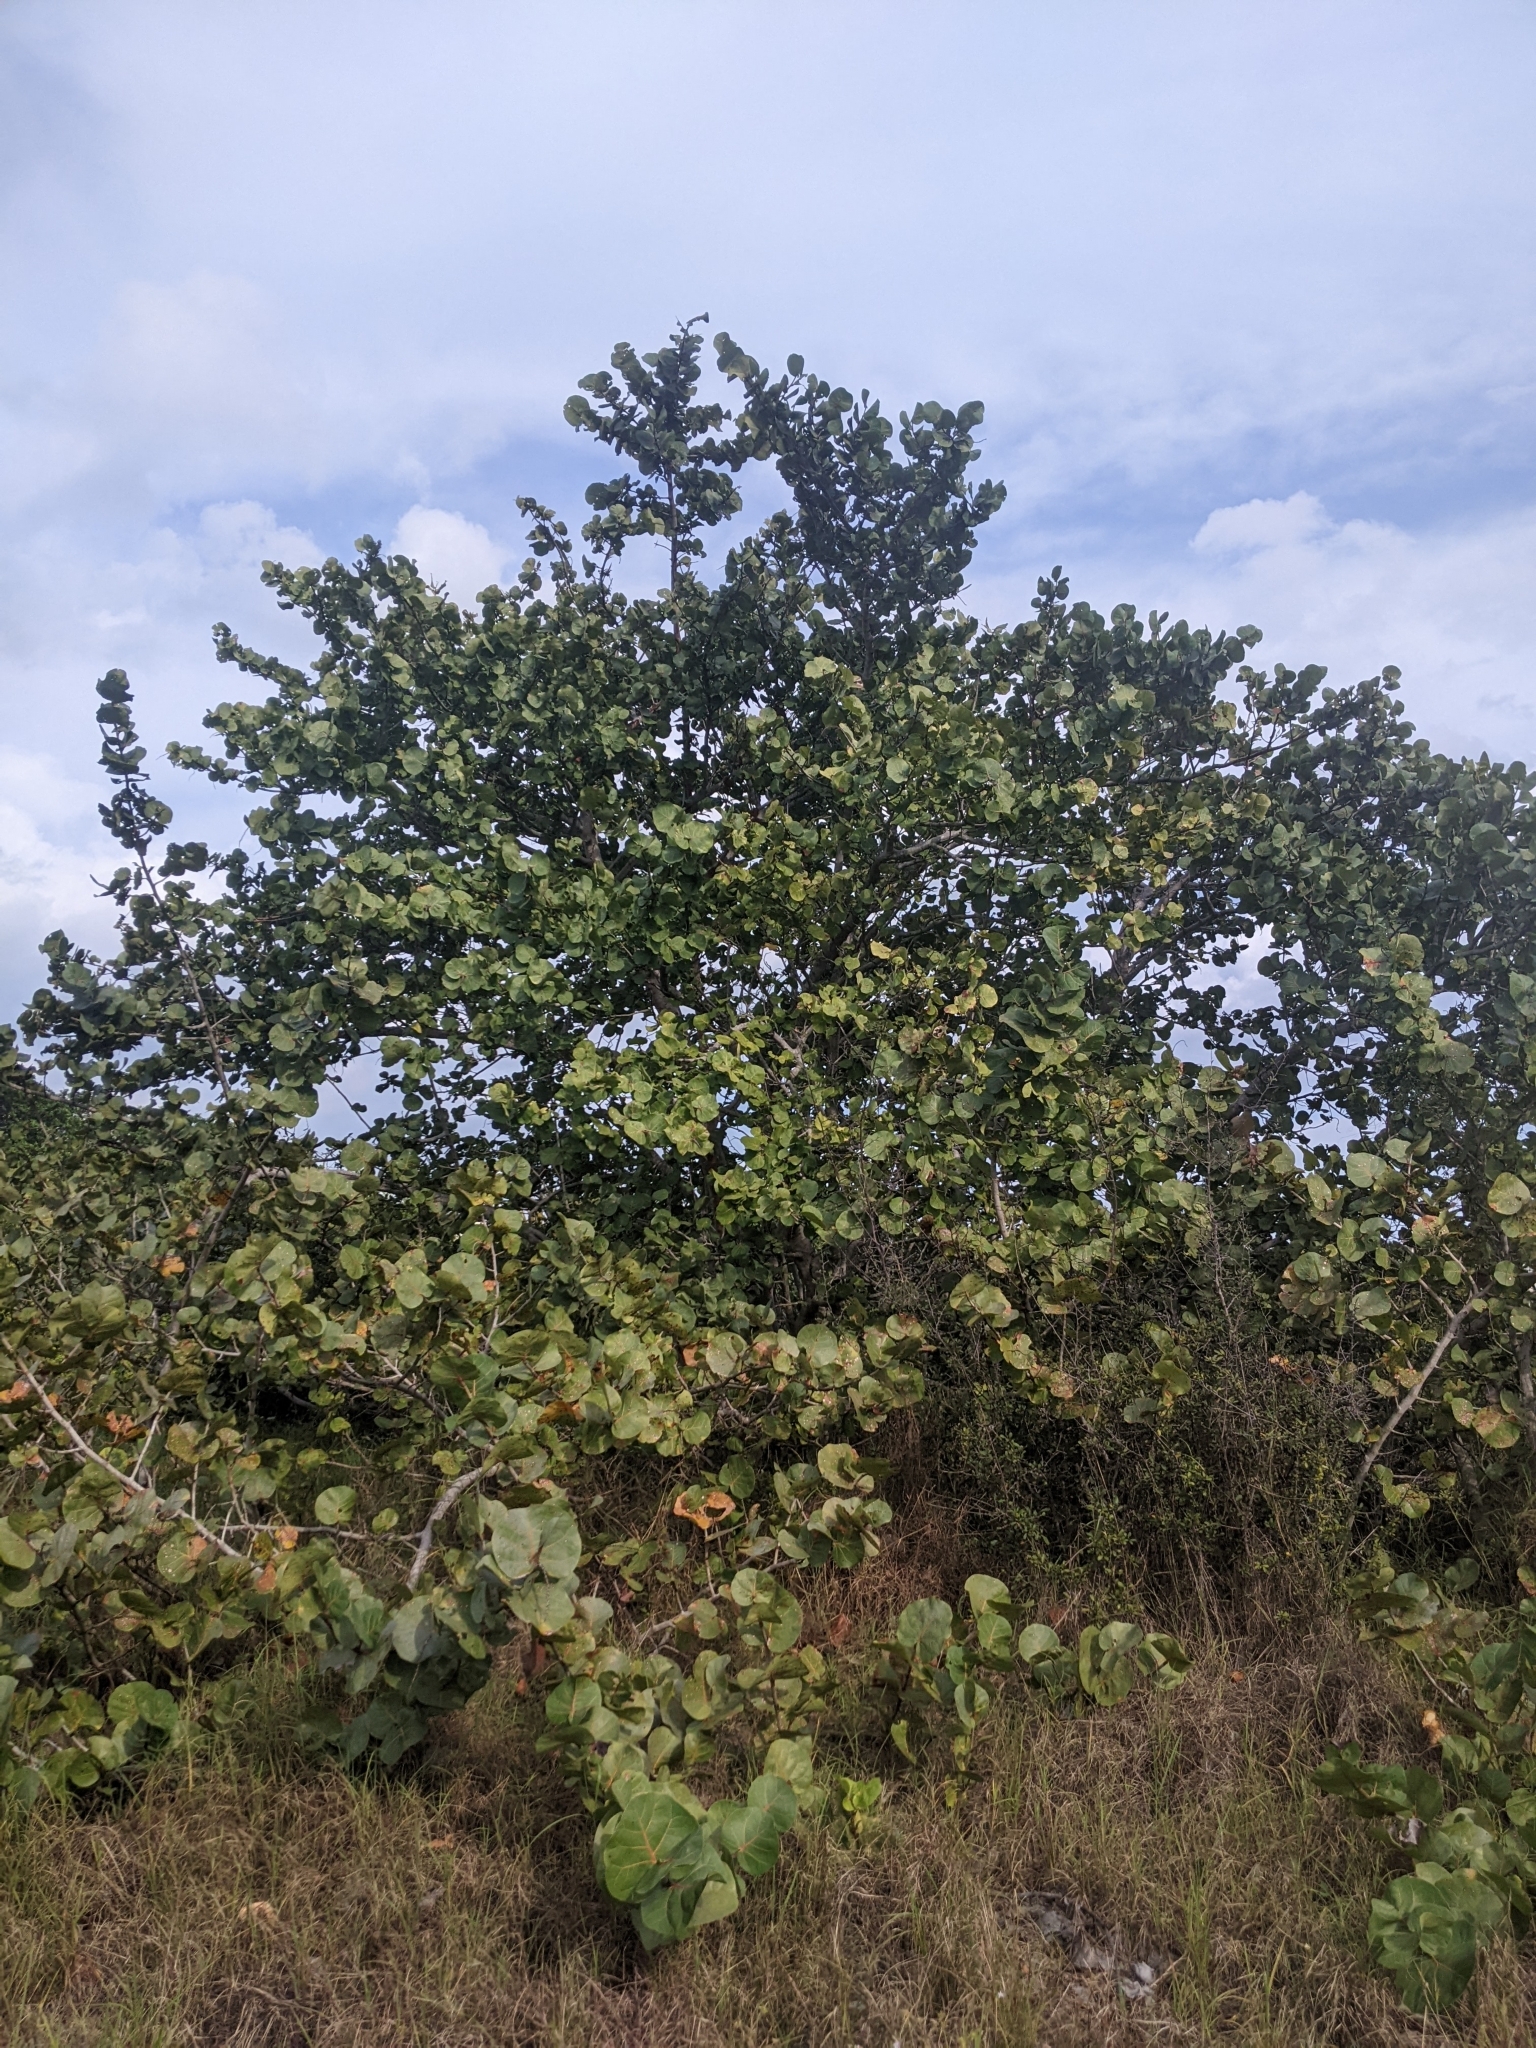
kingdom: Plantae
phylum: Tracheophyta
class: Magnoliopsida
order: Caryophyllales
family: Polygonaceae
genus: Coccoloba
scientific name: Coccoloba uvifera
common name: Seagrape
